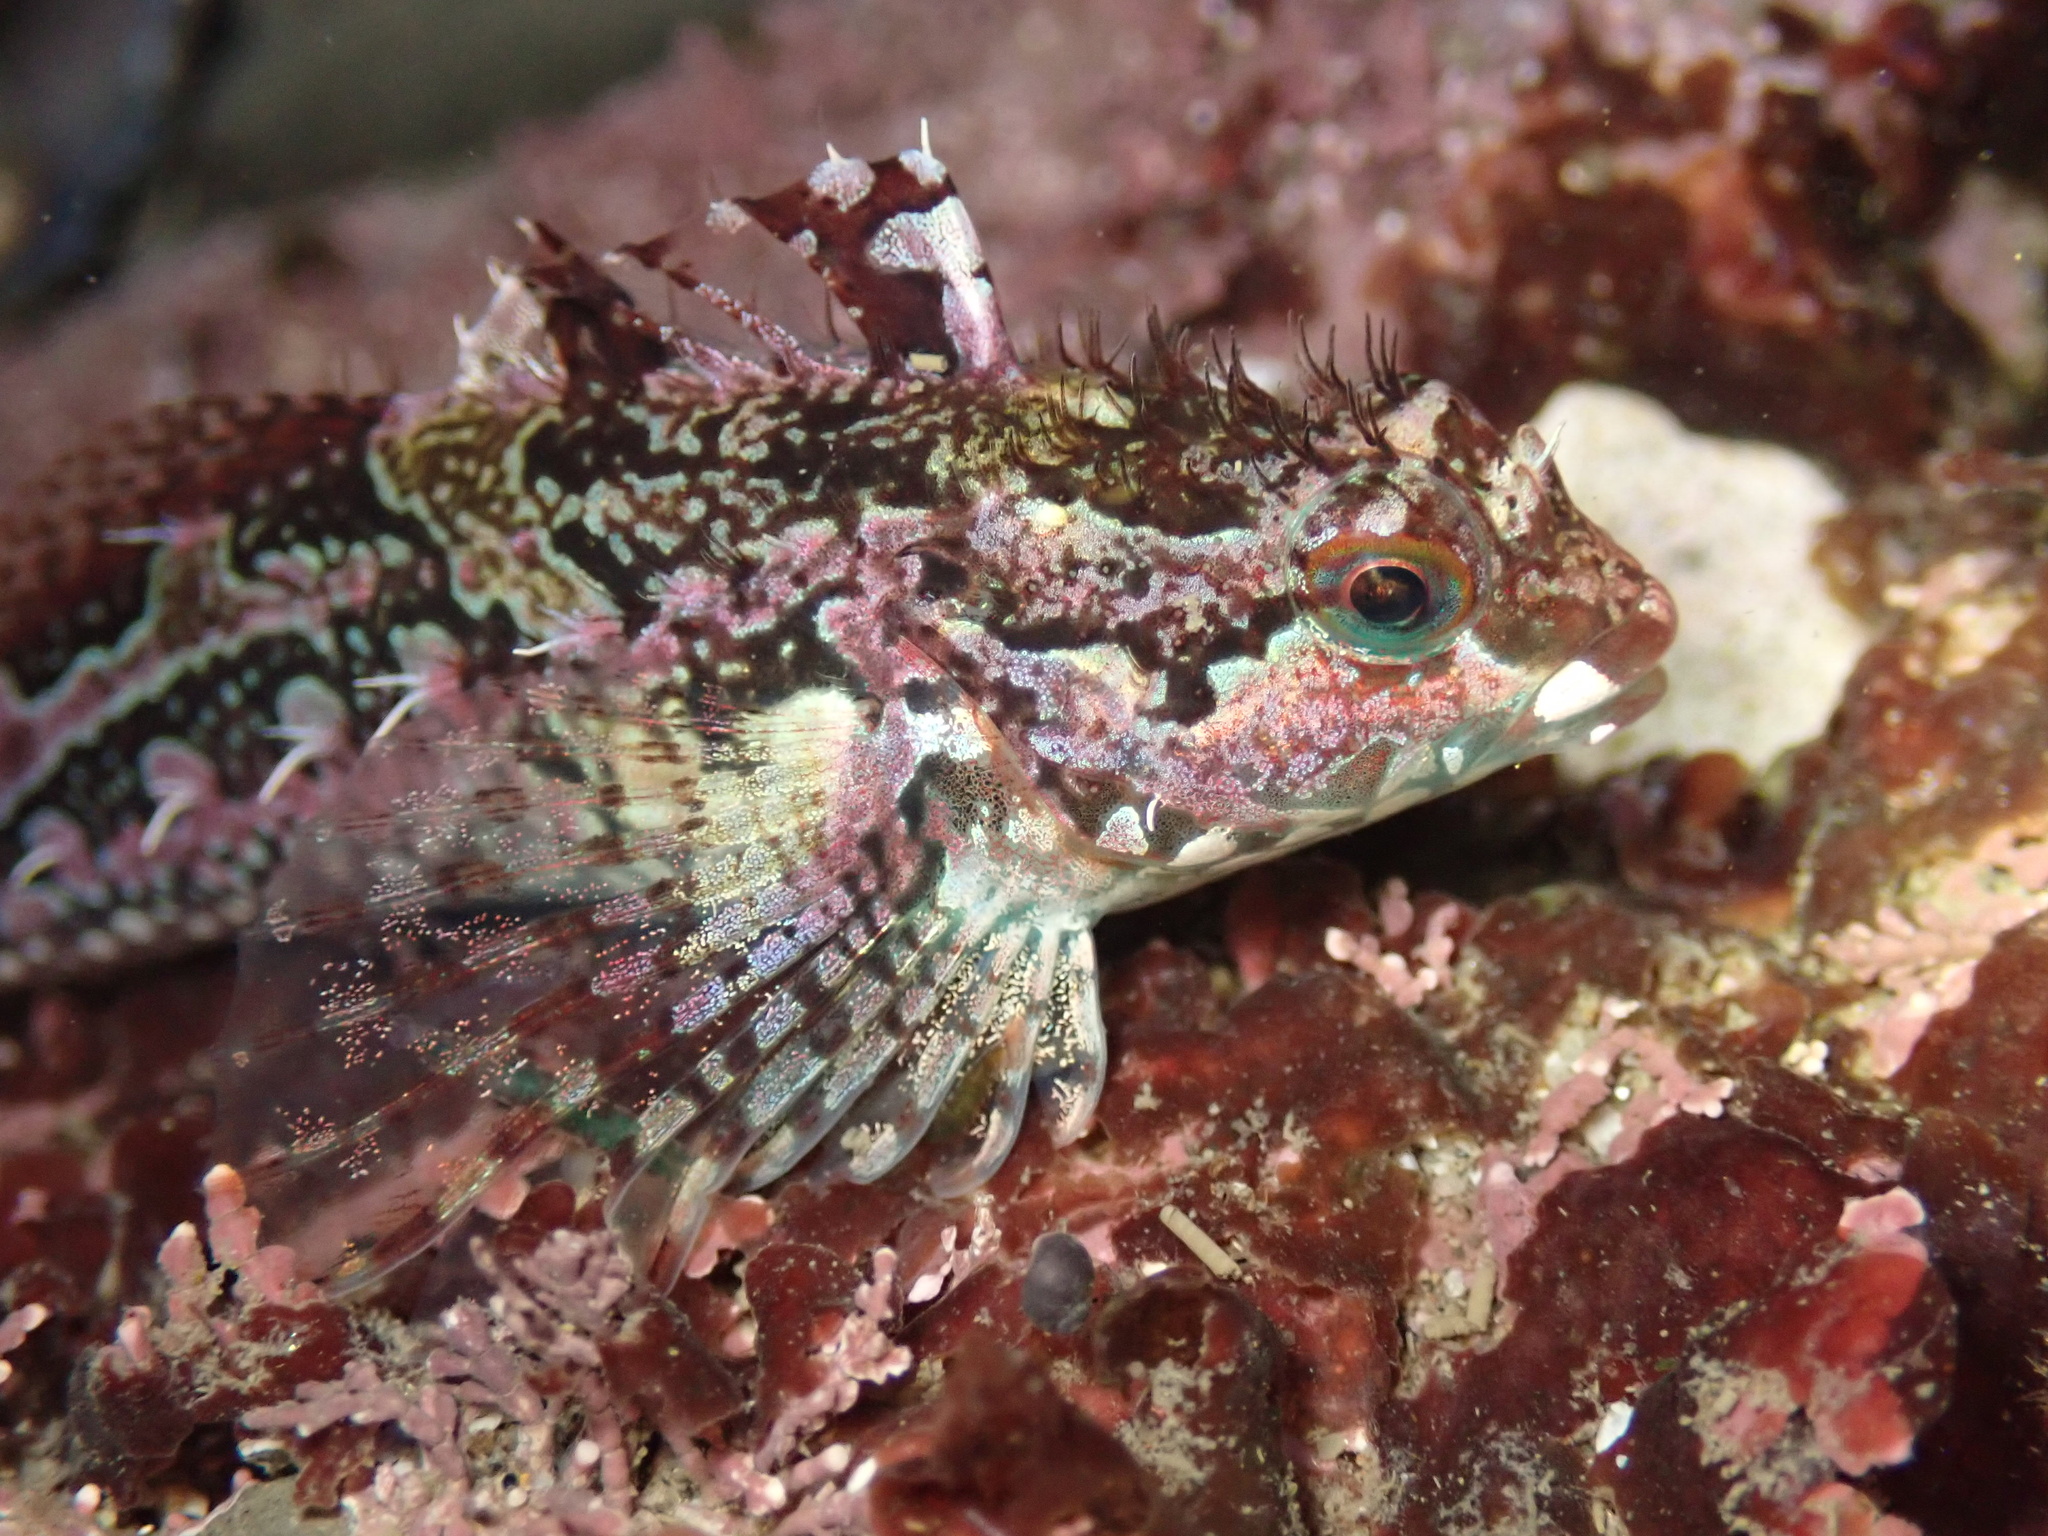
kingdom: Animalia
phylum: Chordata
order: Scorpaeniformes
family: Cottidae
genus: Oligocottus
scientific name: Oligocottus snyderi
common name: Fluffy sculpin
